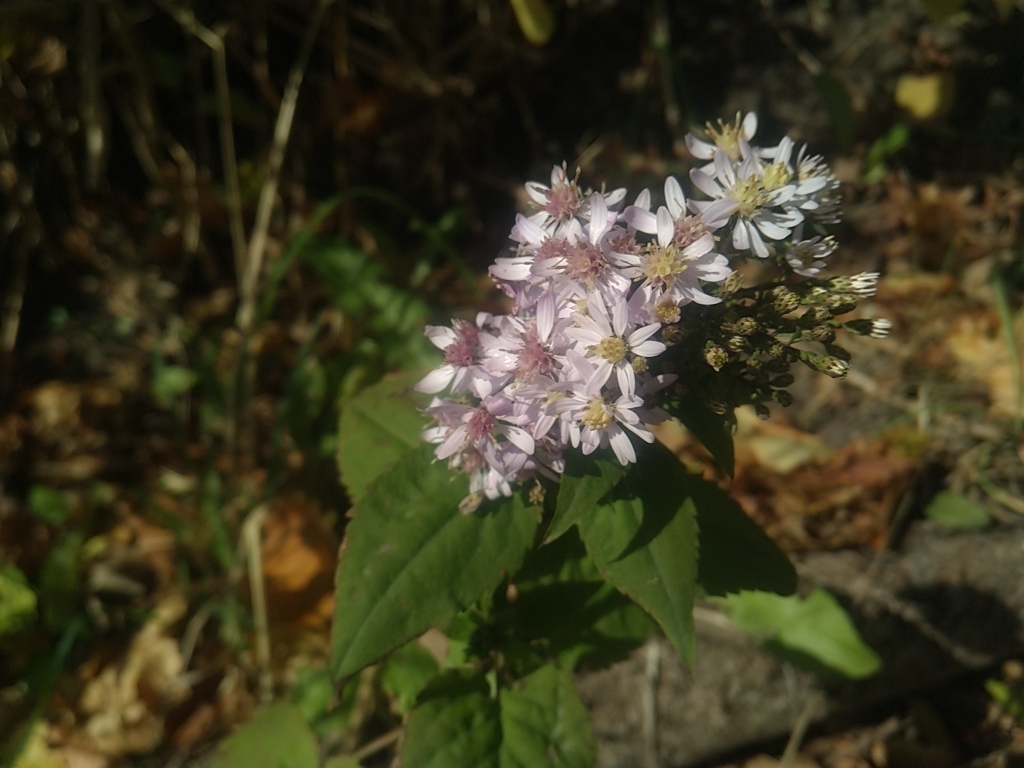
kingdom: Plantae
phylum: Tracheophyta
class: Magnoliopsida
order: Asterales
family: Asteraceae
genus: Symphyotrichum
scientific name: Symphyotrichum cordifolium
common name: Beeweed
